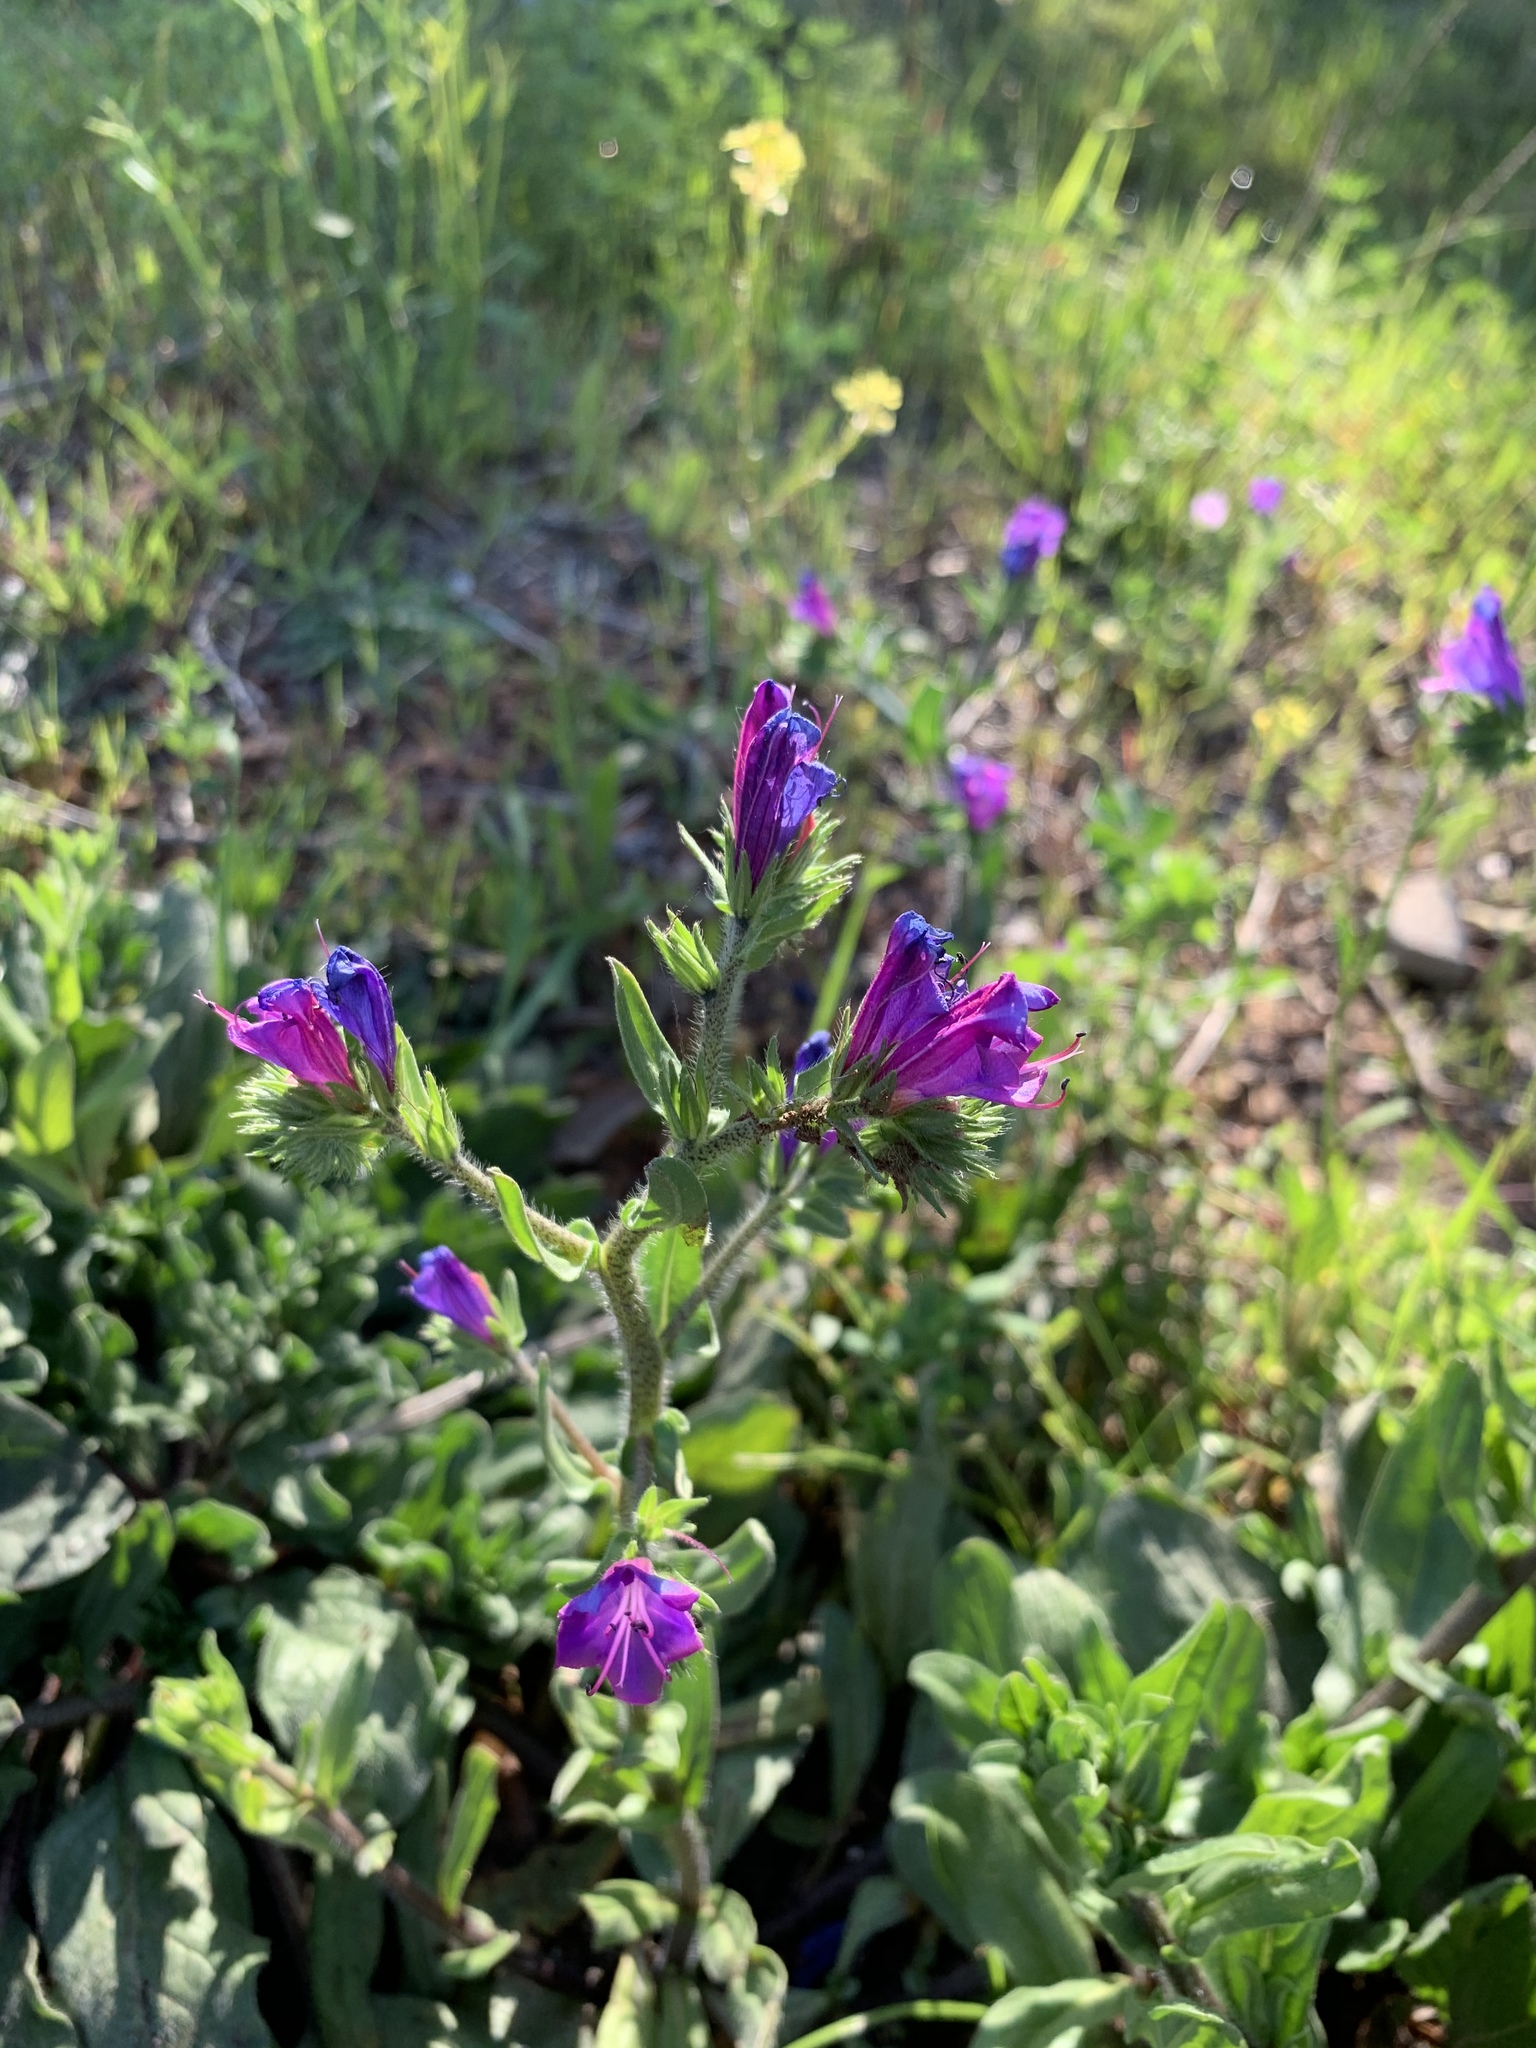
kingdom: Plantae
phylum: Tracheophyta
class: Magnoliopsida
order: Boraginales
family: Boraginaceae
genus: Echium
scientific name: Echium plantagineum
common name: Purple viper's-bugloss
